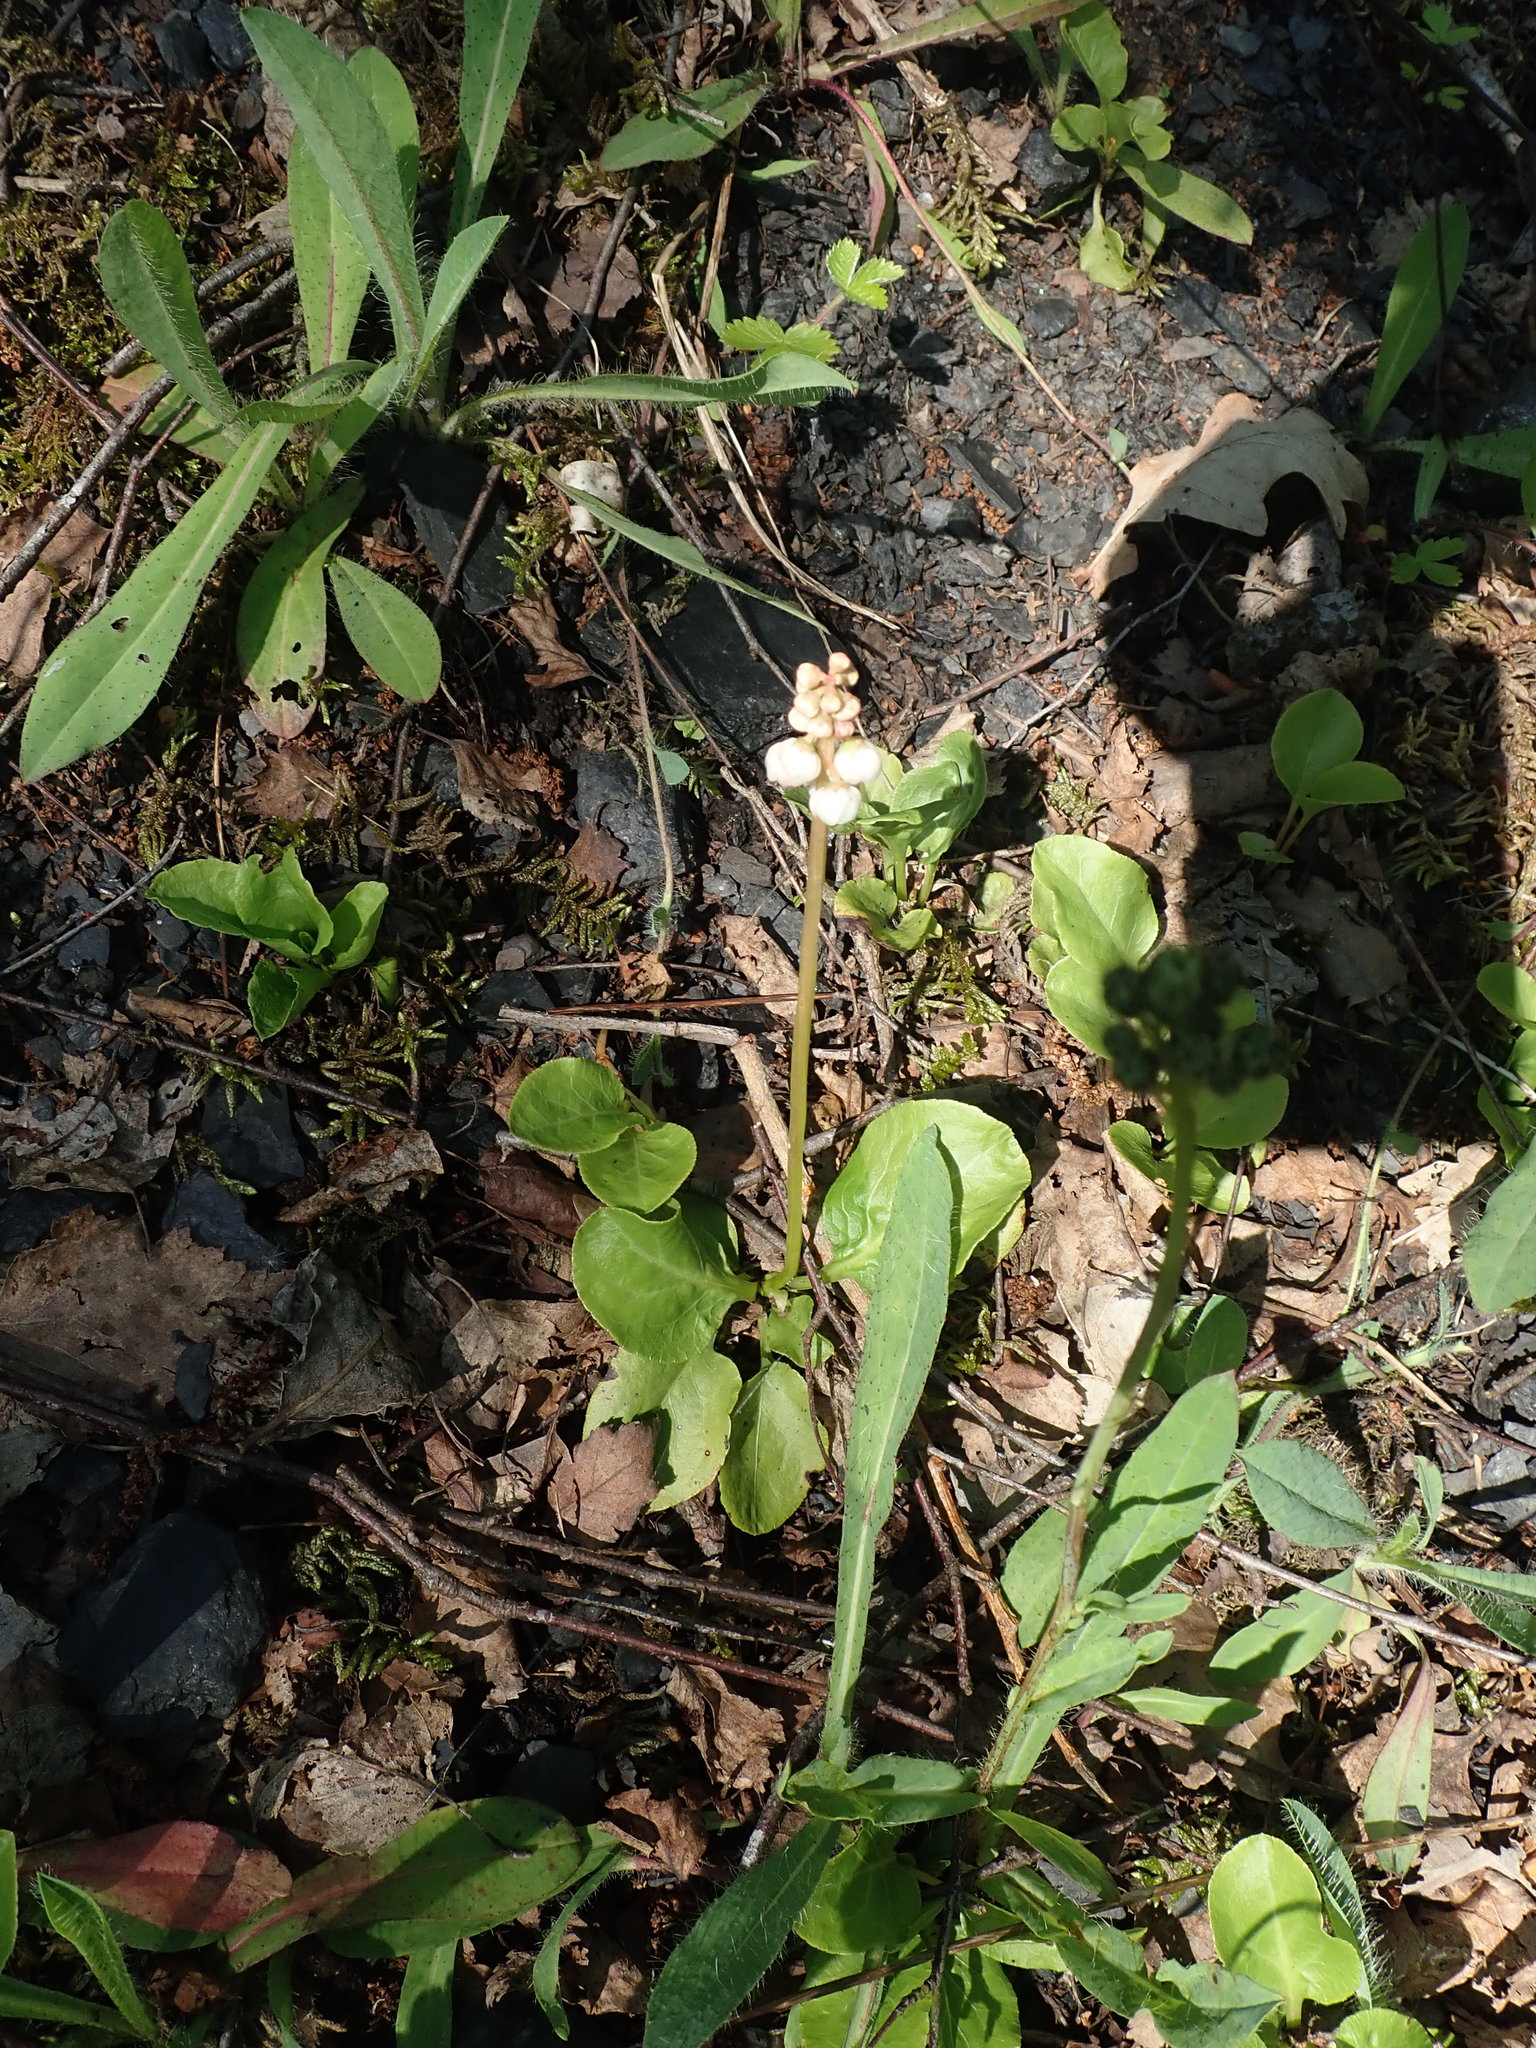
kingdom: Plantae
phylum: Tracheophyta
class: Magnoliopsida
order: Ericales
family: Ericaceae
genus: Pyrola
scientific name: Pyrola minor
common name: Common wintergreen
